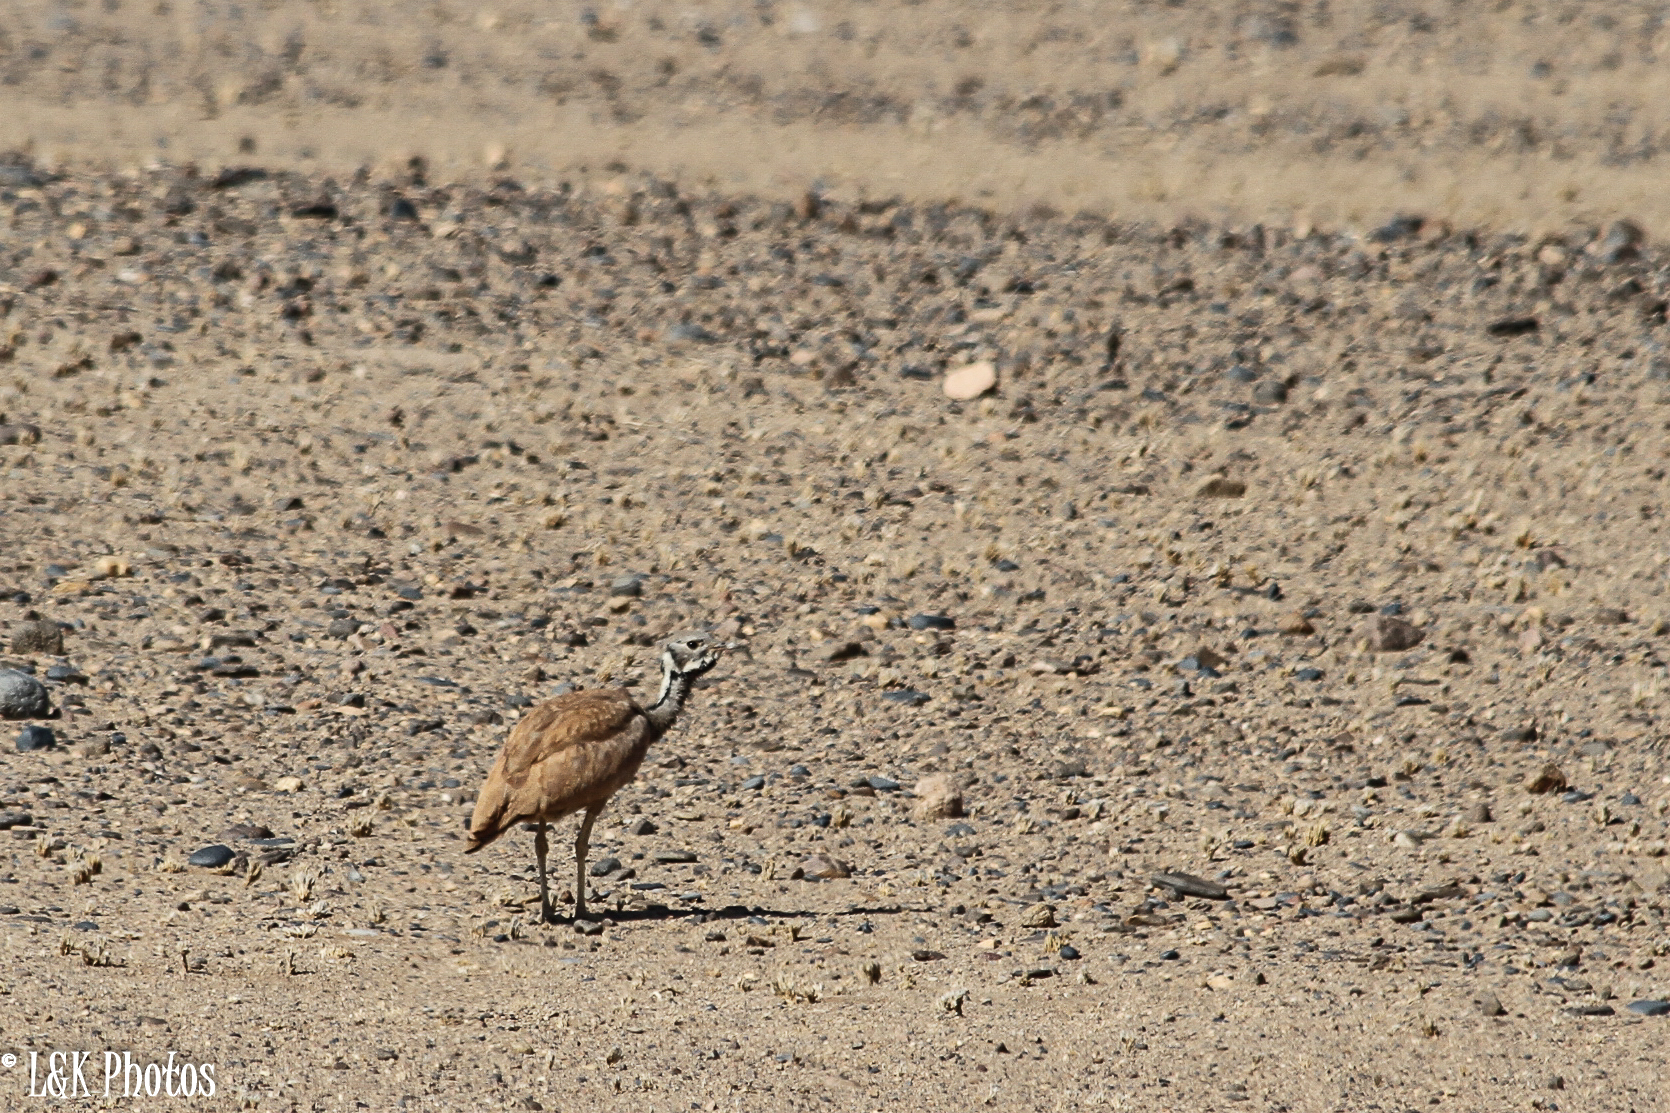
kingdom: Animalia
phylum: Chordata
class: Aves
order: Otidiformes
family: Otididae
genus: Heterotetrax
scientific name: Heterotetrax rueppelii
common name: Rüppell's korhaan
